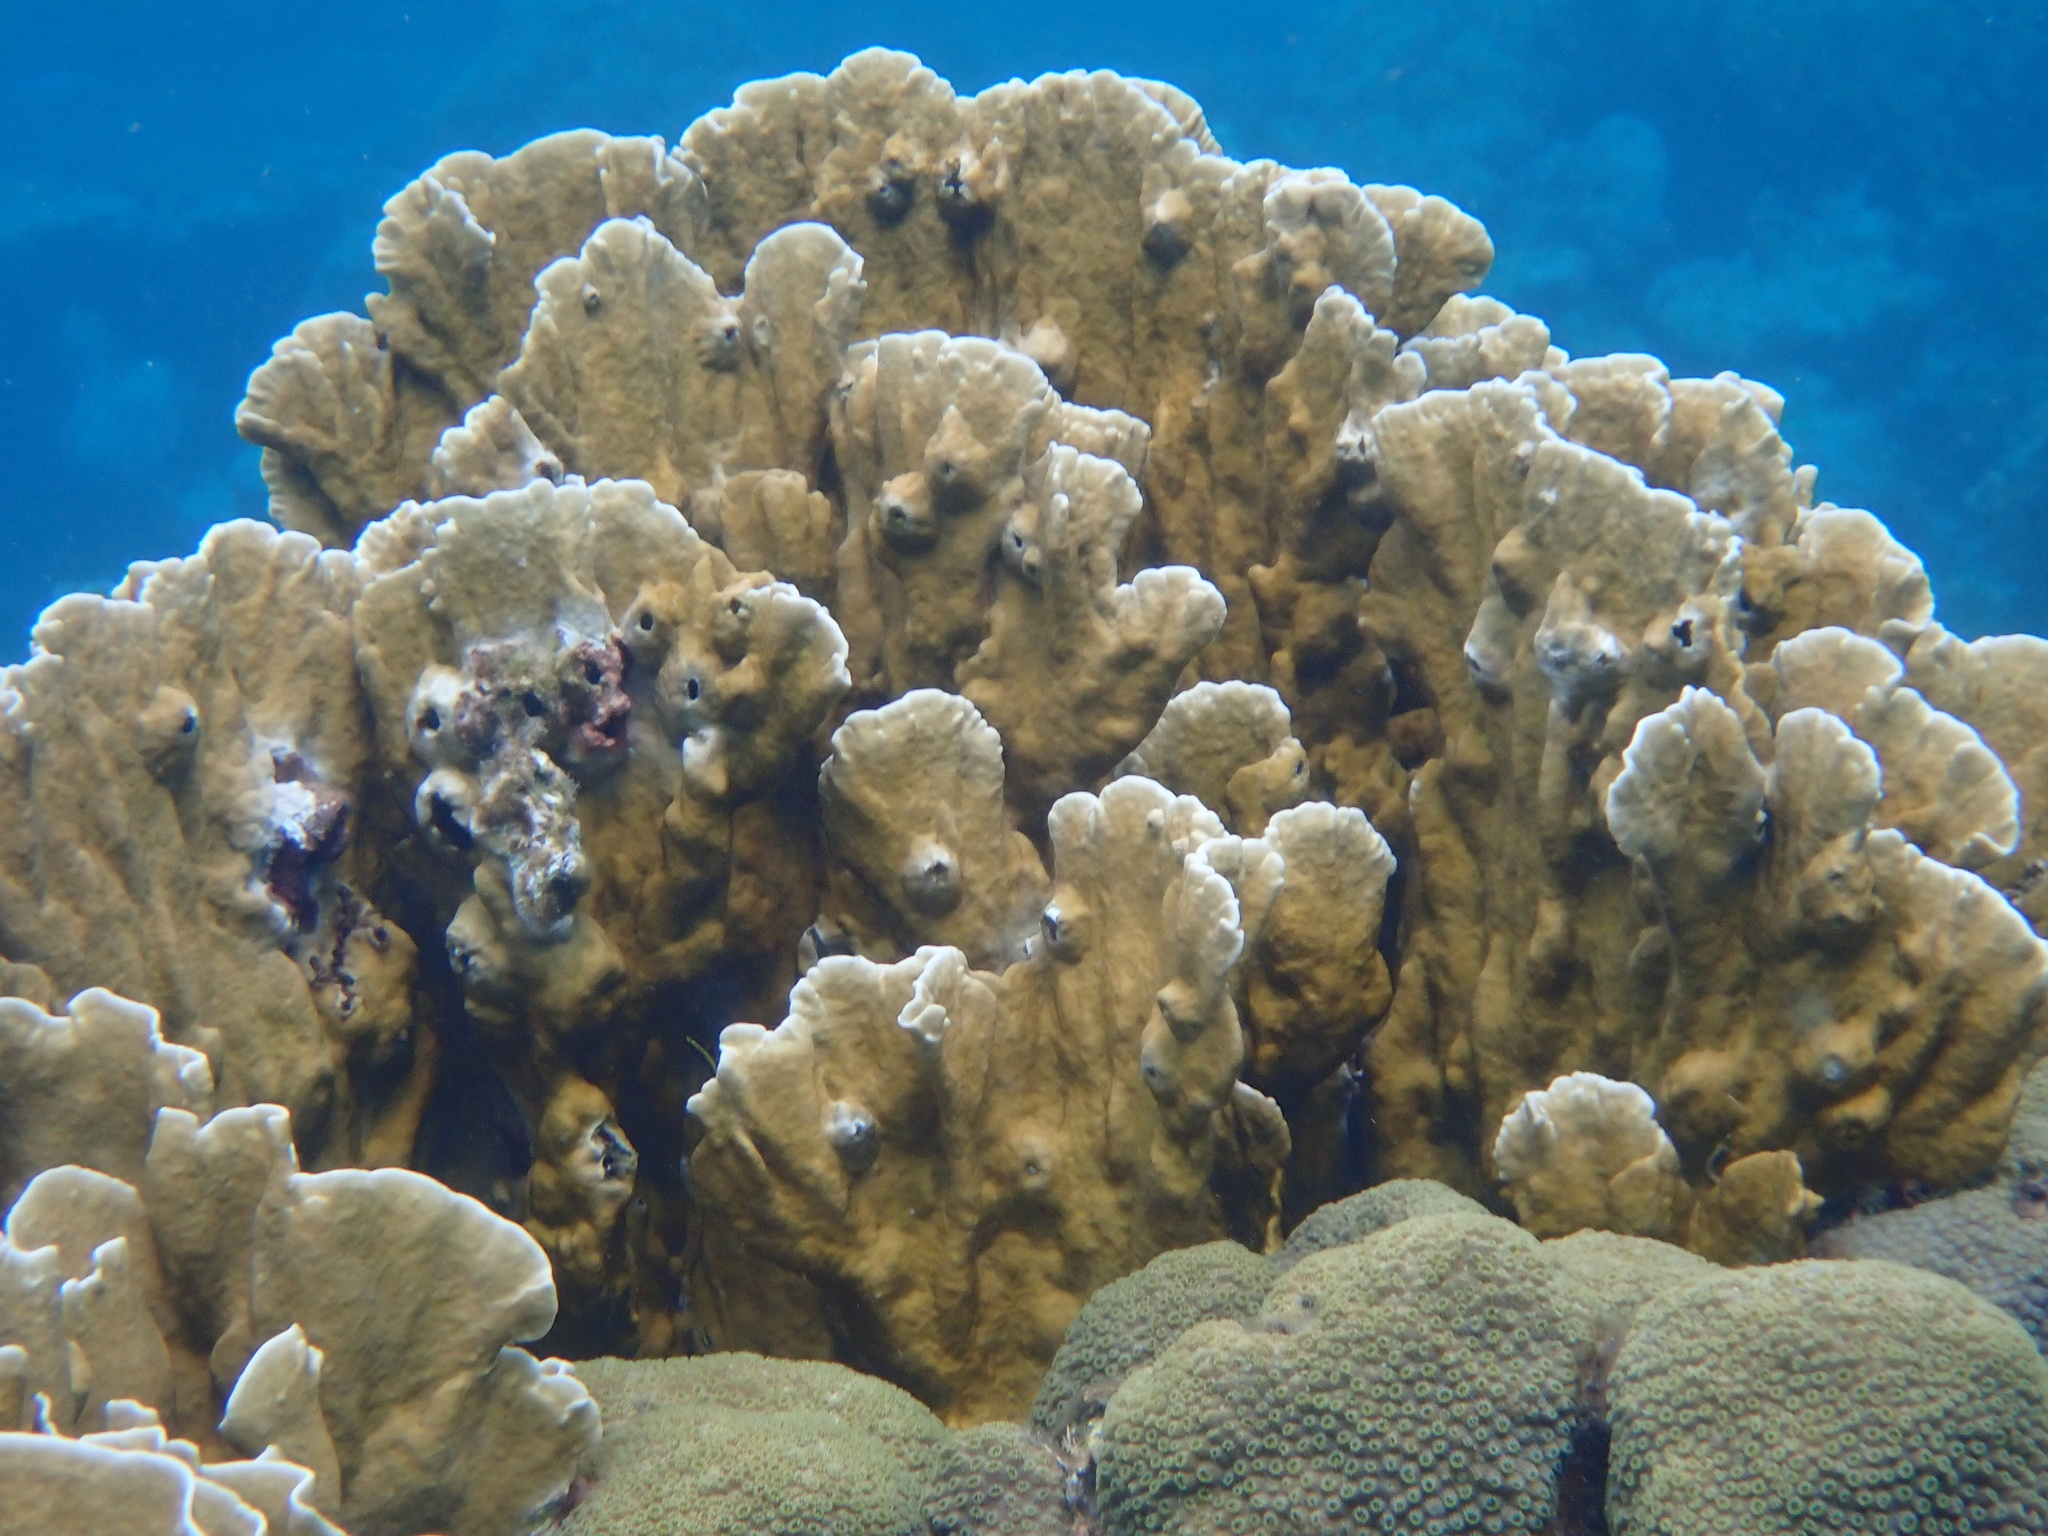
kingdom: Animalia
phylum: Cnidaria
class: Hydrozoa
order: Anthoathecata
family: Milleporidae
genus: Millepora
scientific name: Millepora complanata
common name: Bladed fire coral
